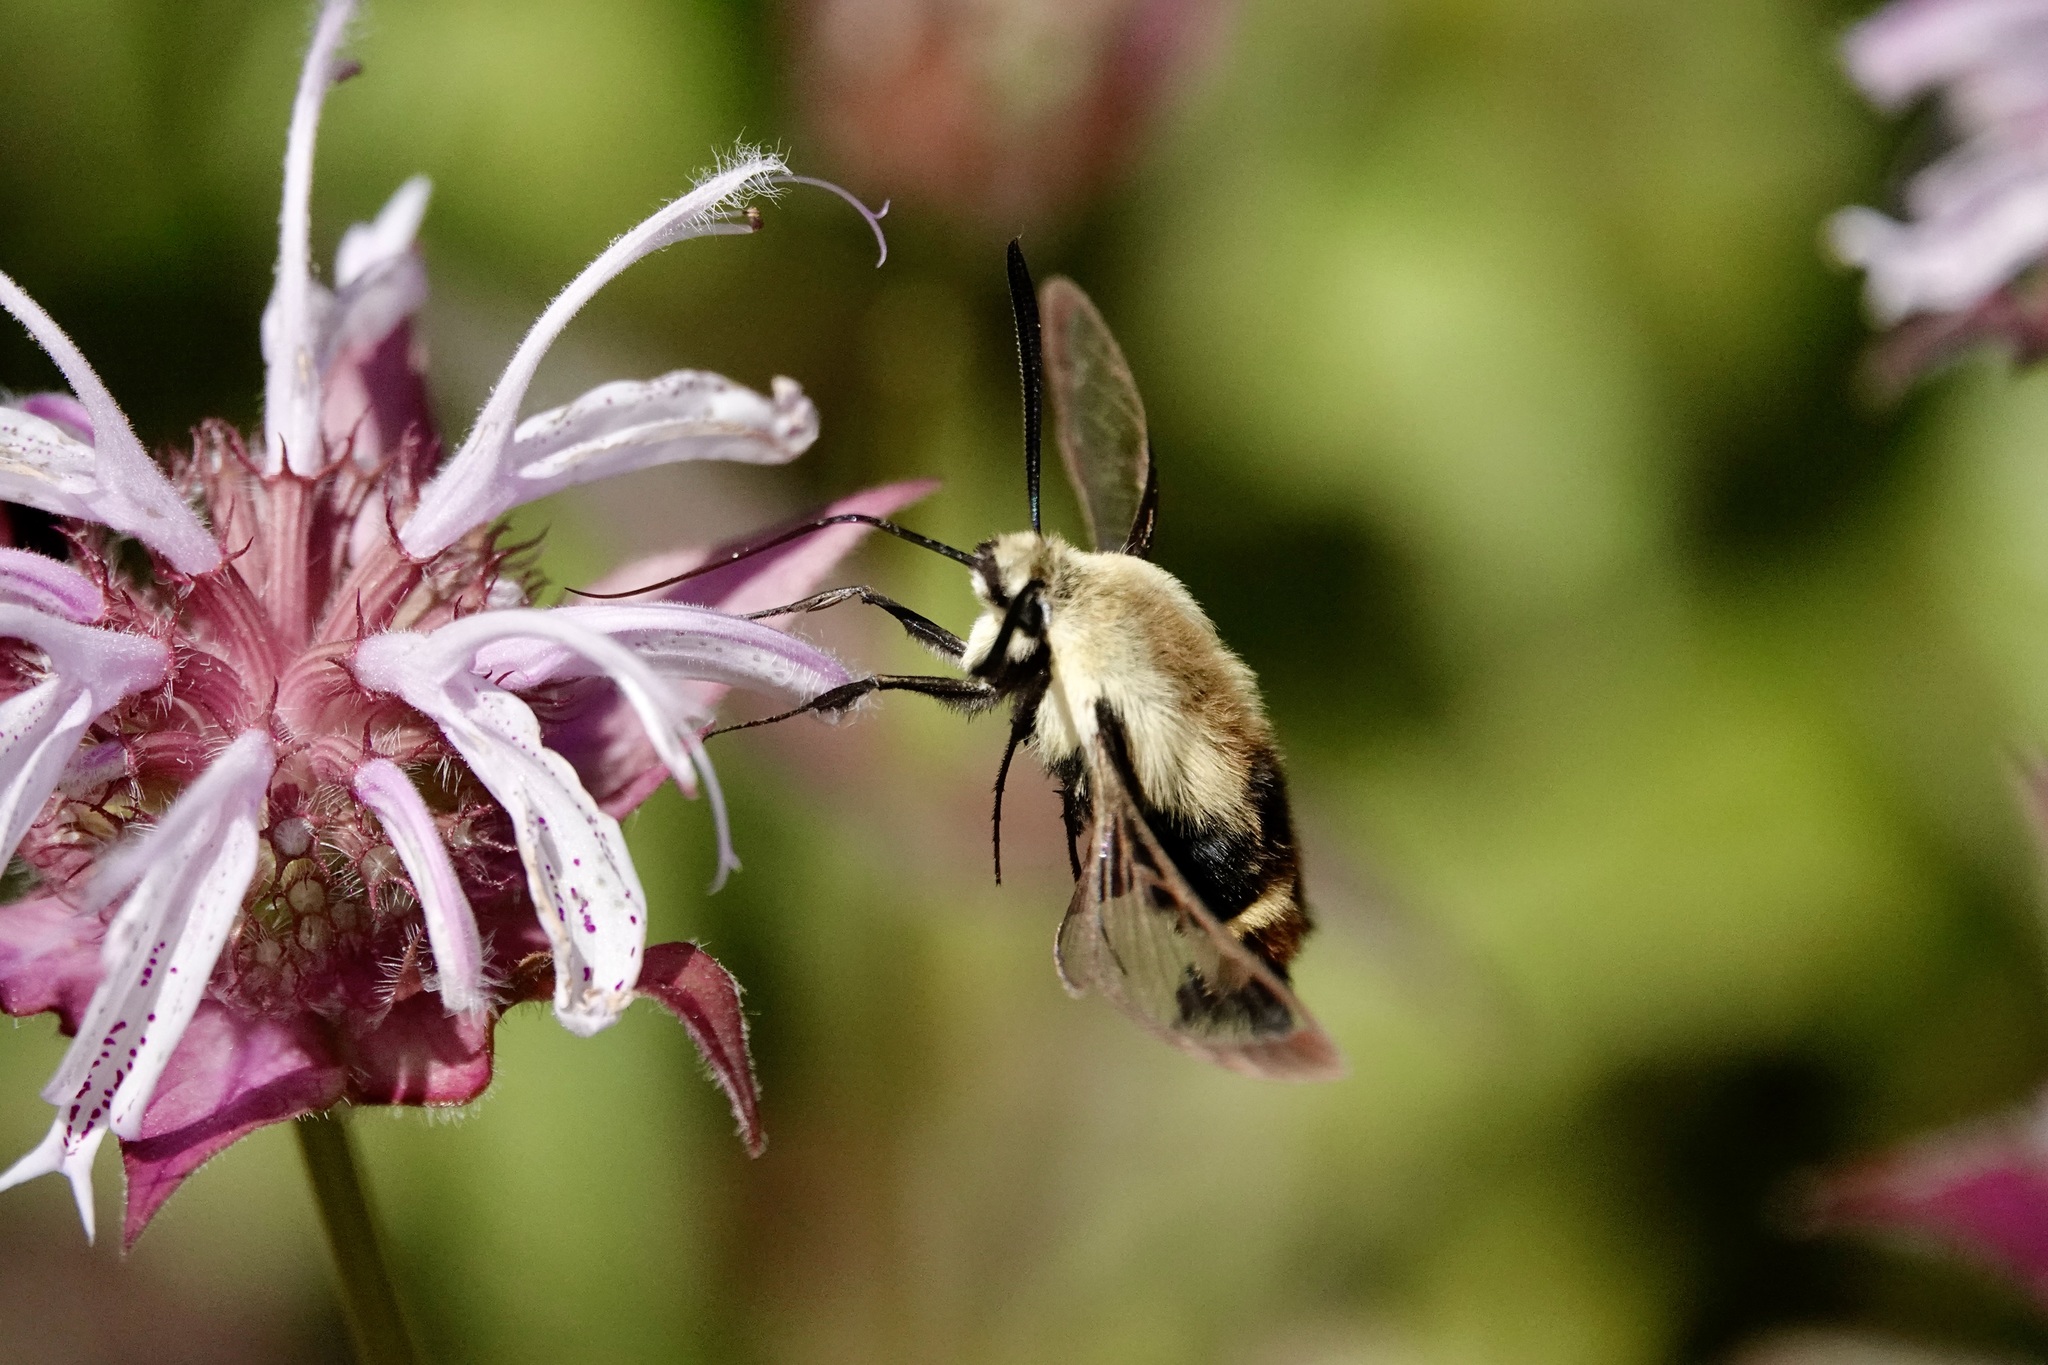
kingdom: Animalia
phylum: Arthropoda
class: Insecta
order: Lepidoptera
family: Sphingidae
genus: Hemaris
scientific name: Hemaris diffinis
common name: Bumblebee moth
